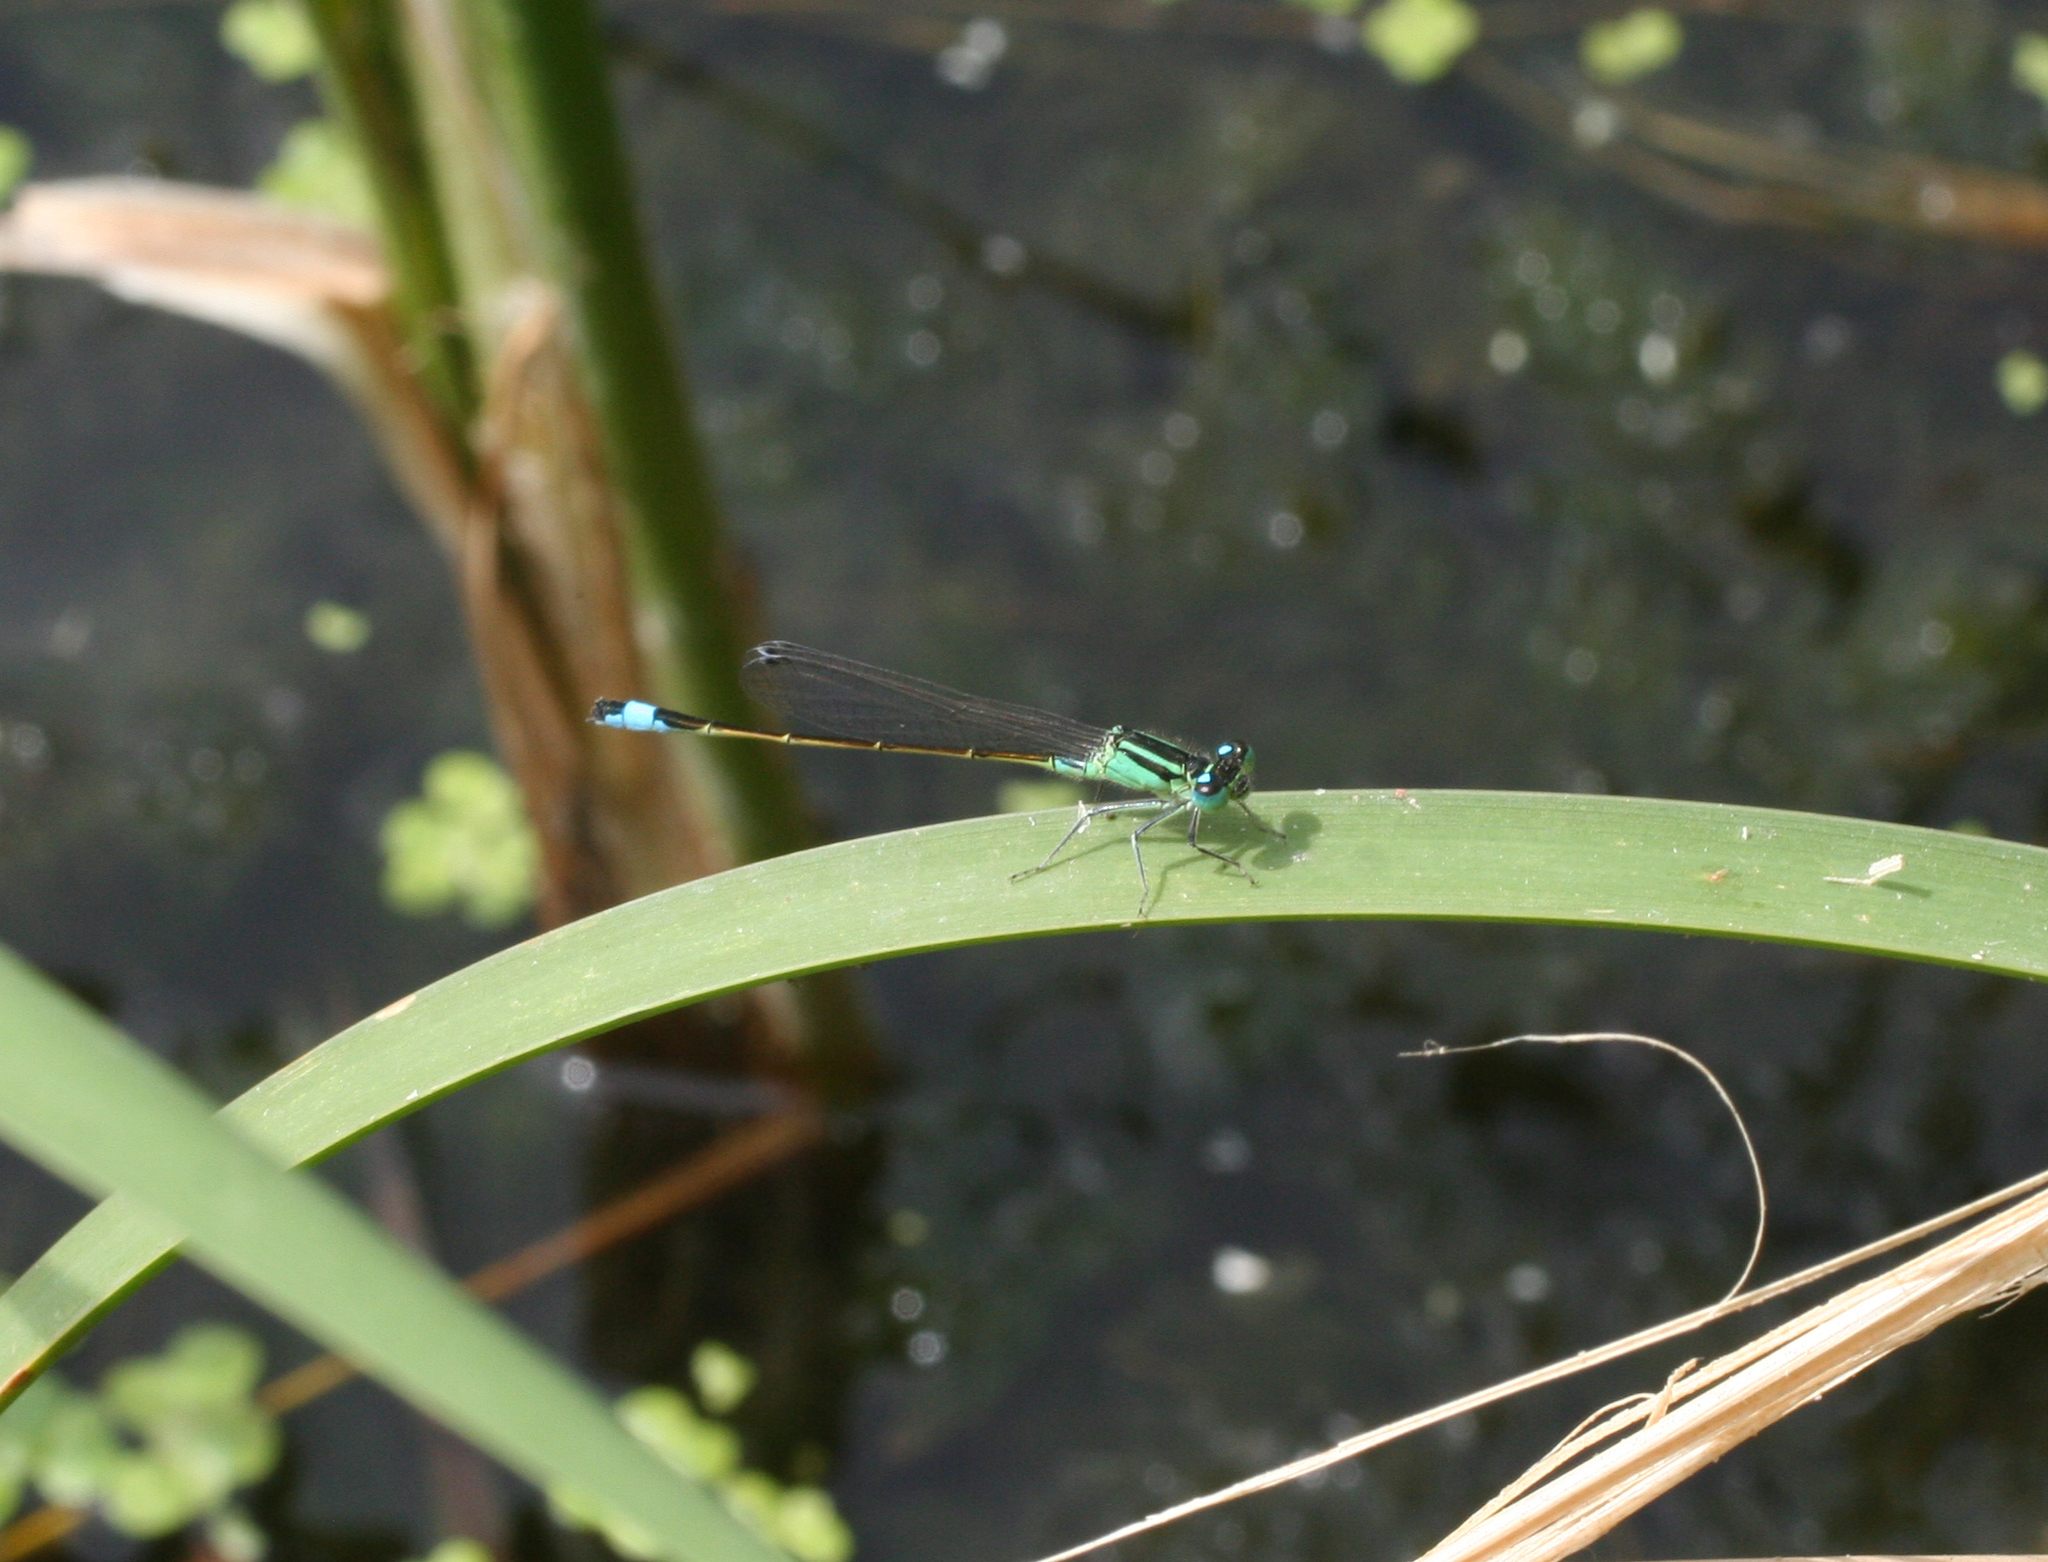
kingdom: Animalia
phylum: Arthropoda
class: Insecta
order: Odonata
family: Coenagrionidae
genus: Ischnura
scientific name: Ischnura elegans
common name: Blue-tailed damselfly
